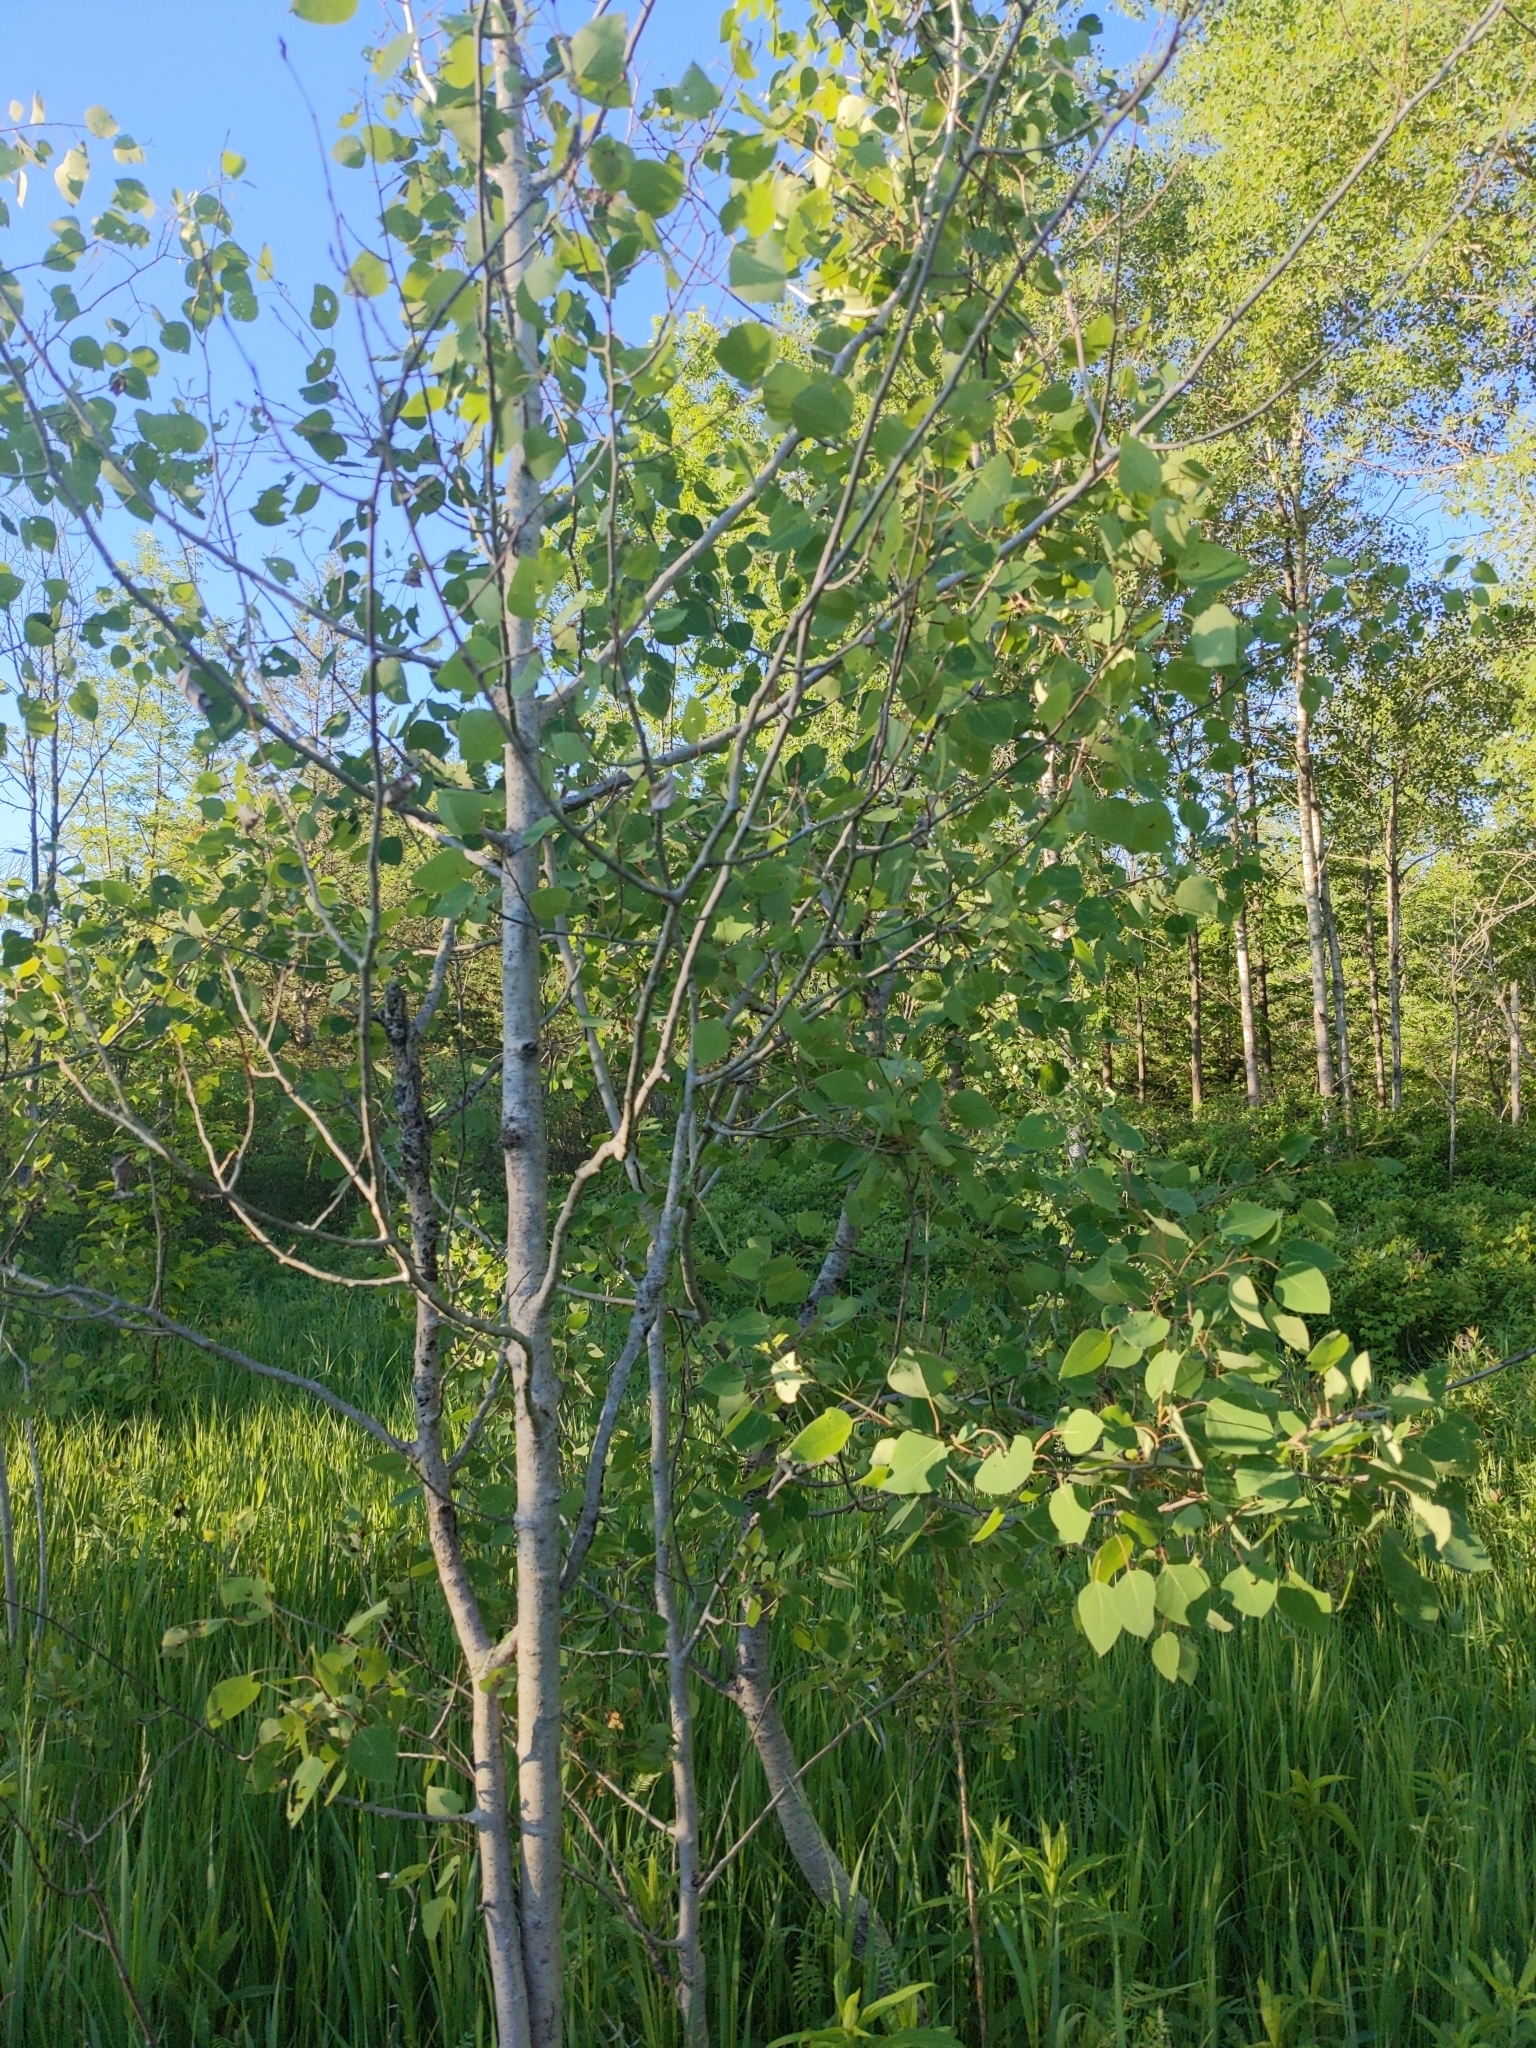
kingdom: Plantae
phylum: Tracheophyta
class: Magnoliopsida
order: Malpighiales
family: Salicaceae
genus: Populus
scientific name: Populus tremuloides
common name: Quaking aspen
